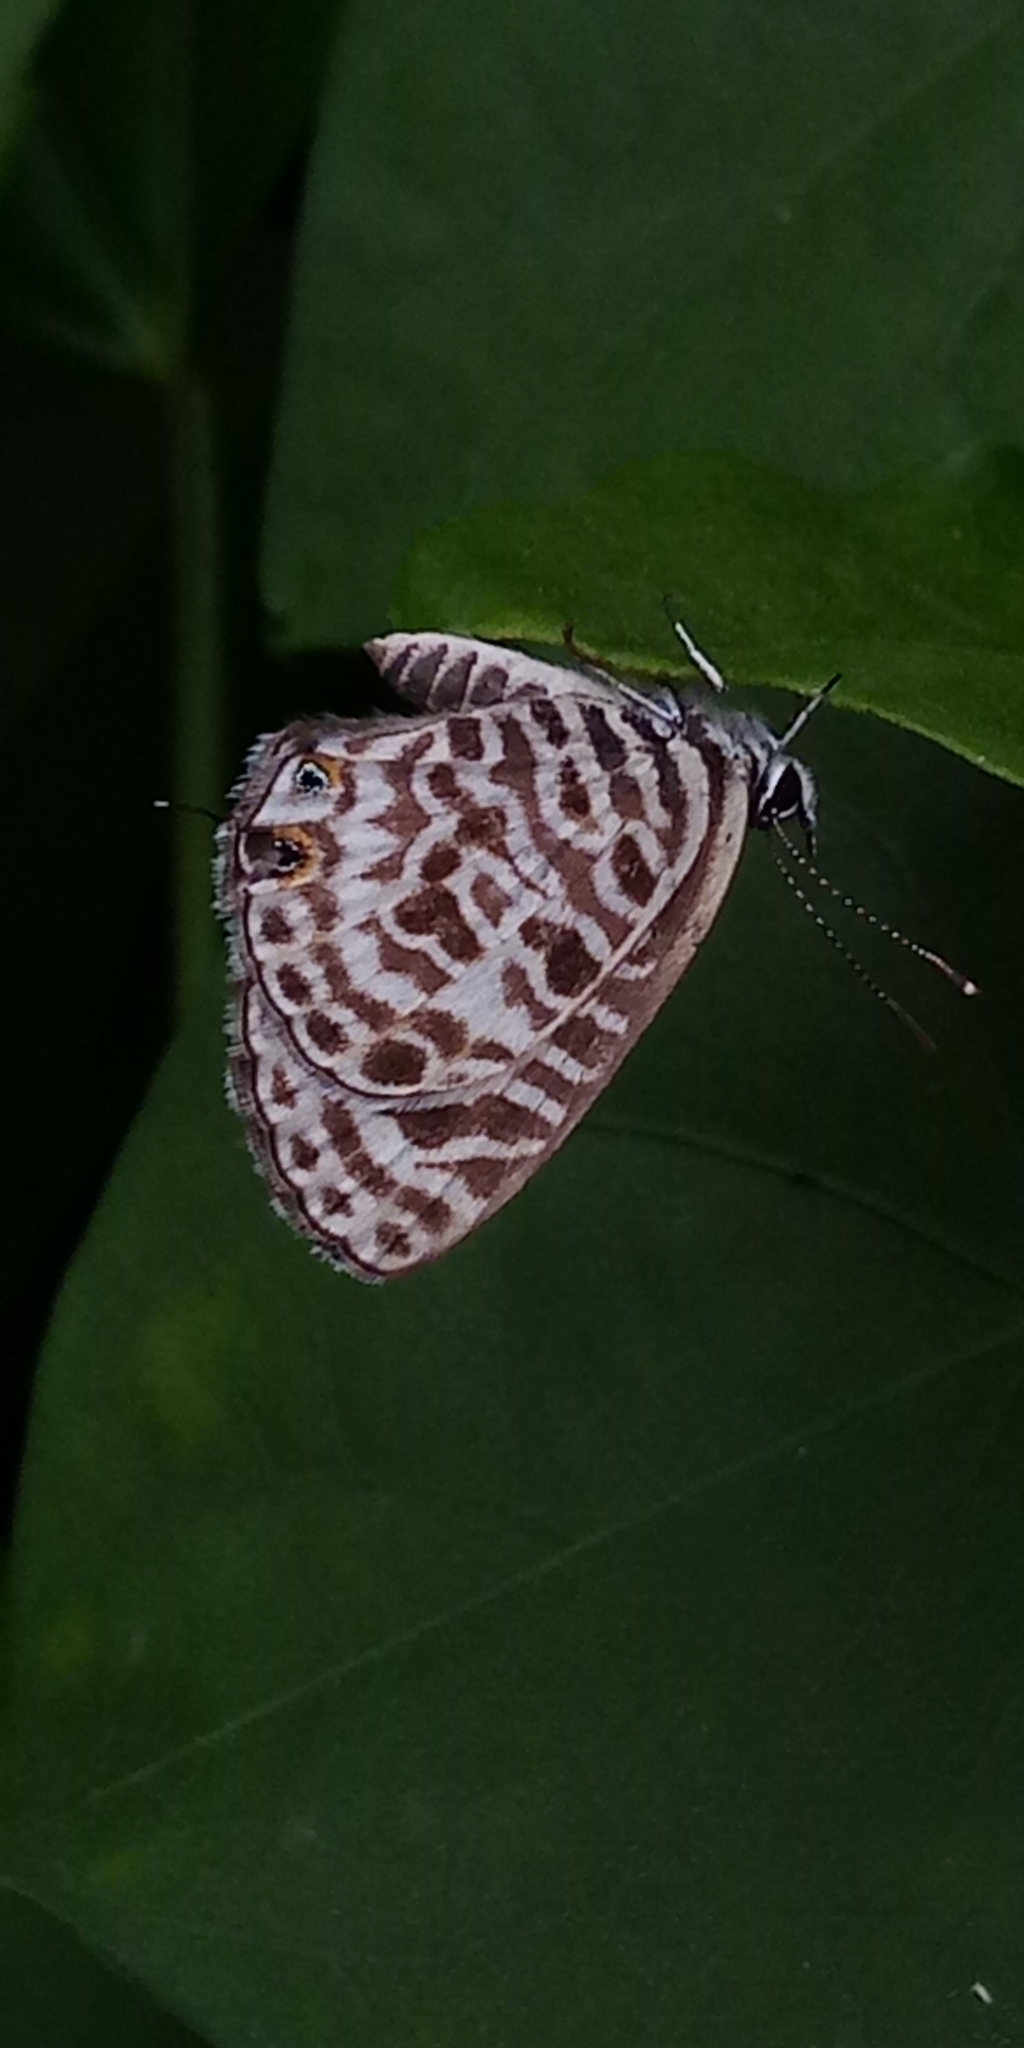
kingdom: Animalia
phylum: Arthropoda
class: Insecta
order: Lepidoptera
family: Lycaenidae
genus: Leptotes
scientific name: Leptotes plinius
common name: Zebra blue
